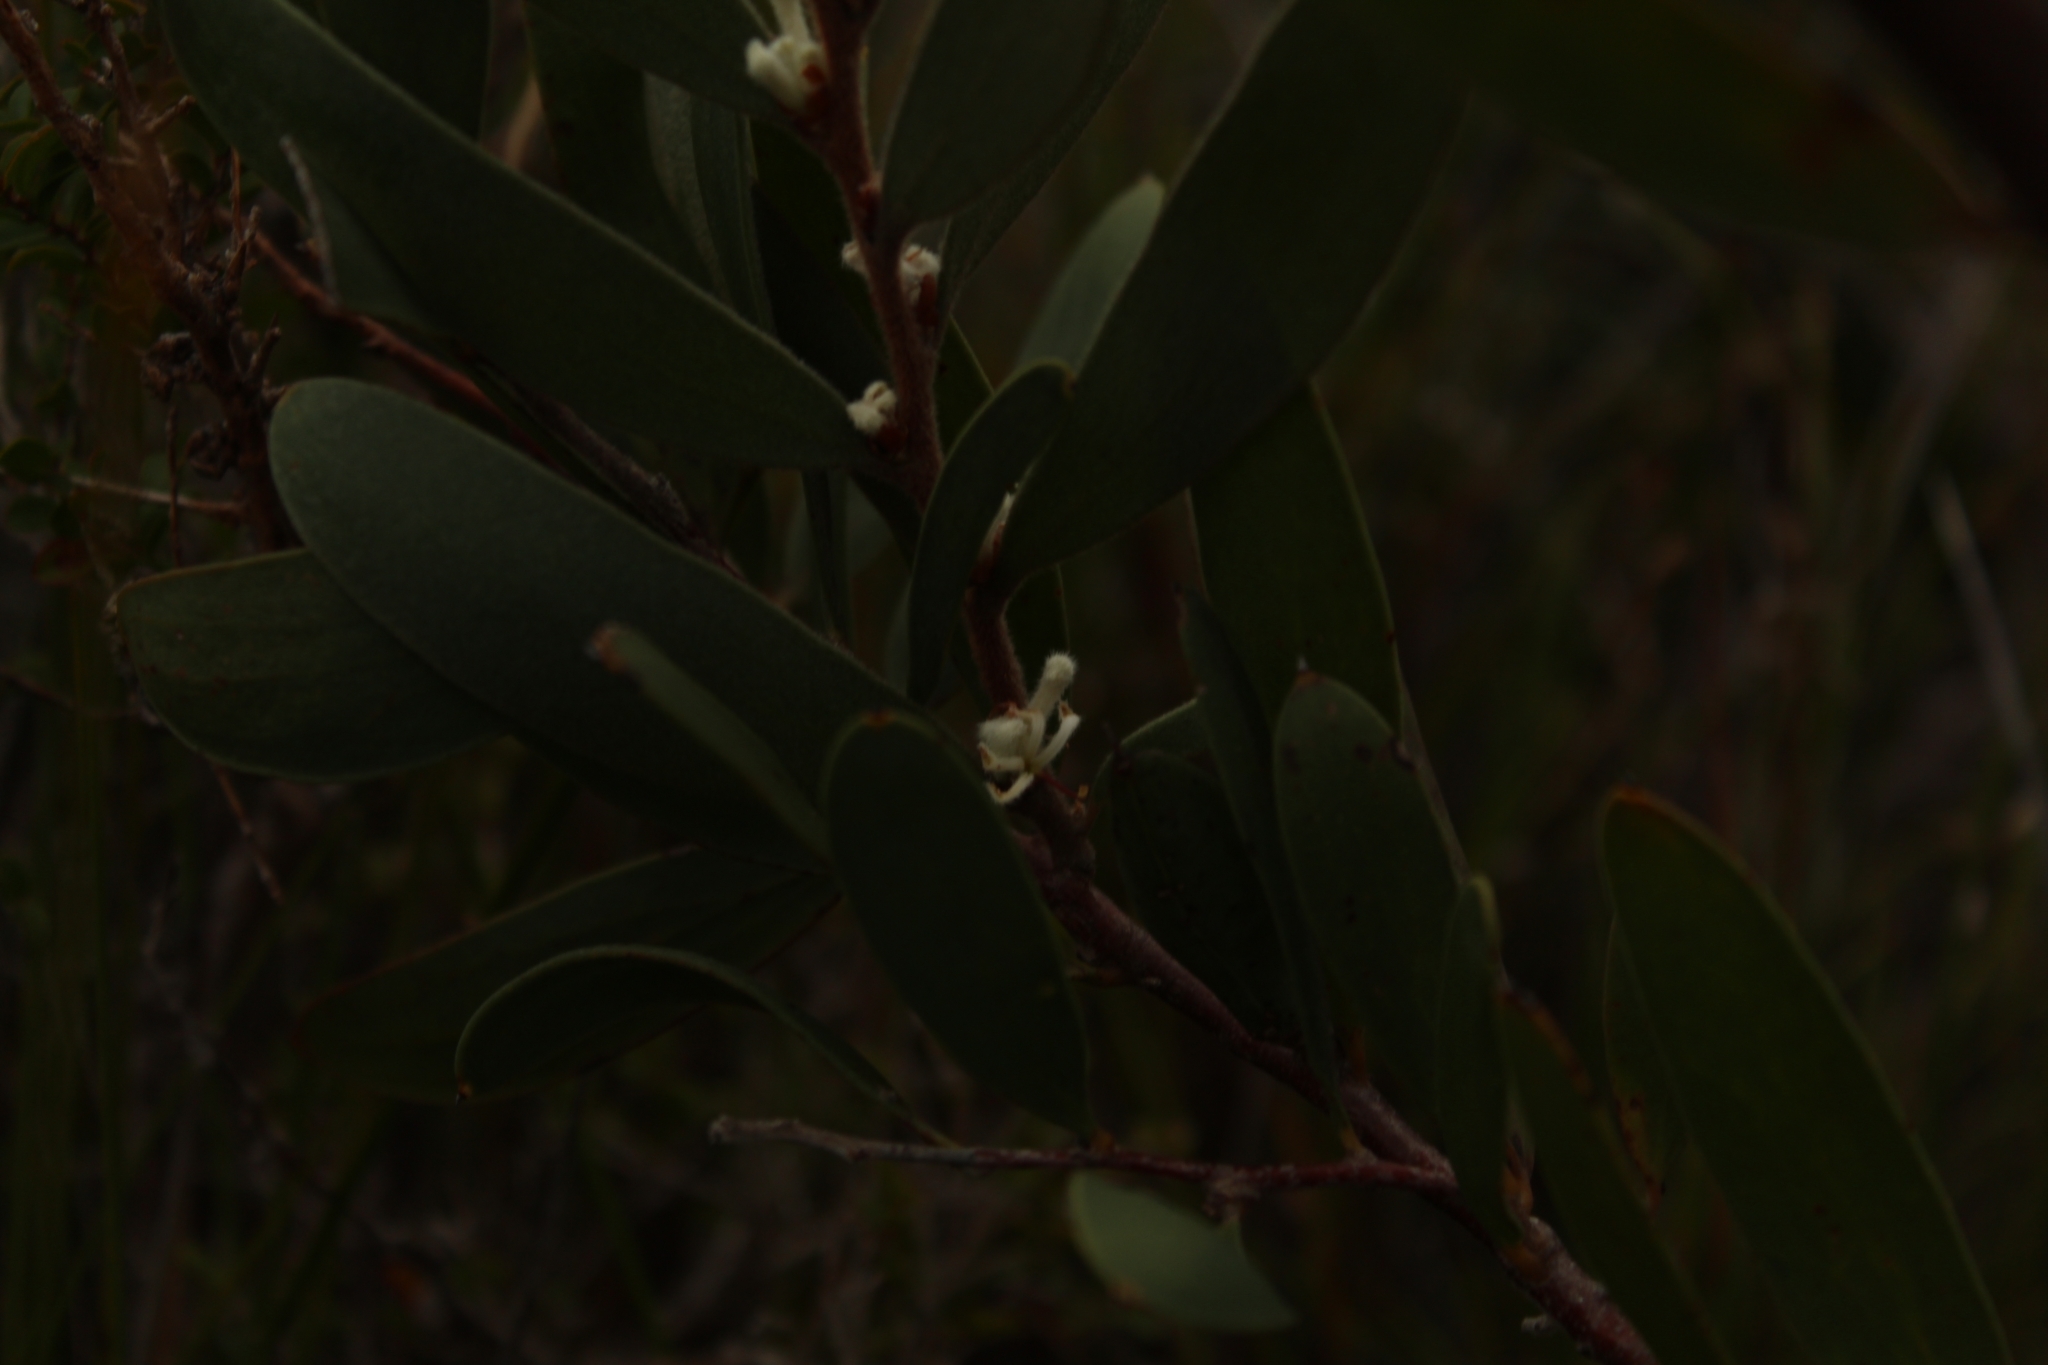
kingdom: Plantae
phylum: Tracheophyta
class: Magnoliopsida
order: Proteales
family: Proteaceae
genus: Hakea
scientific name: Hakea oleifolia
